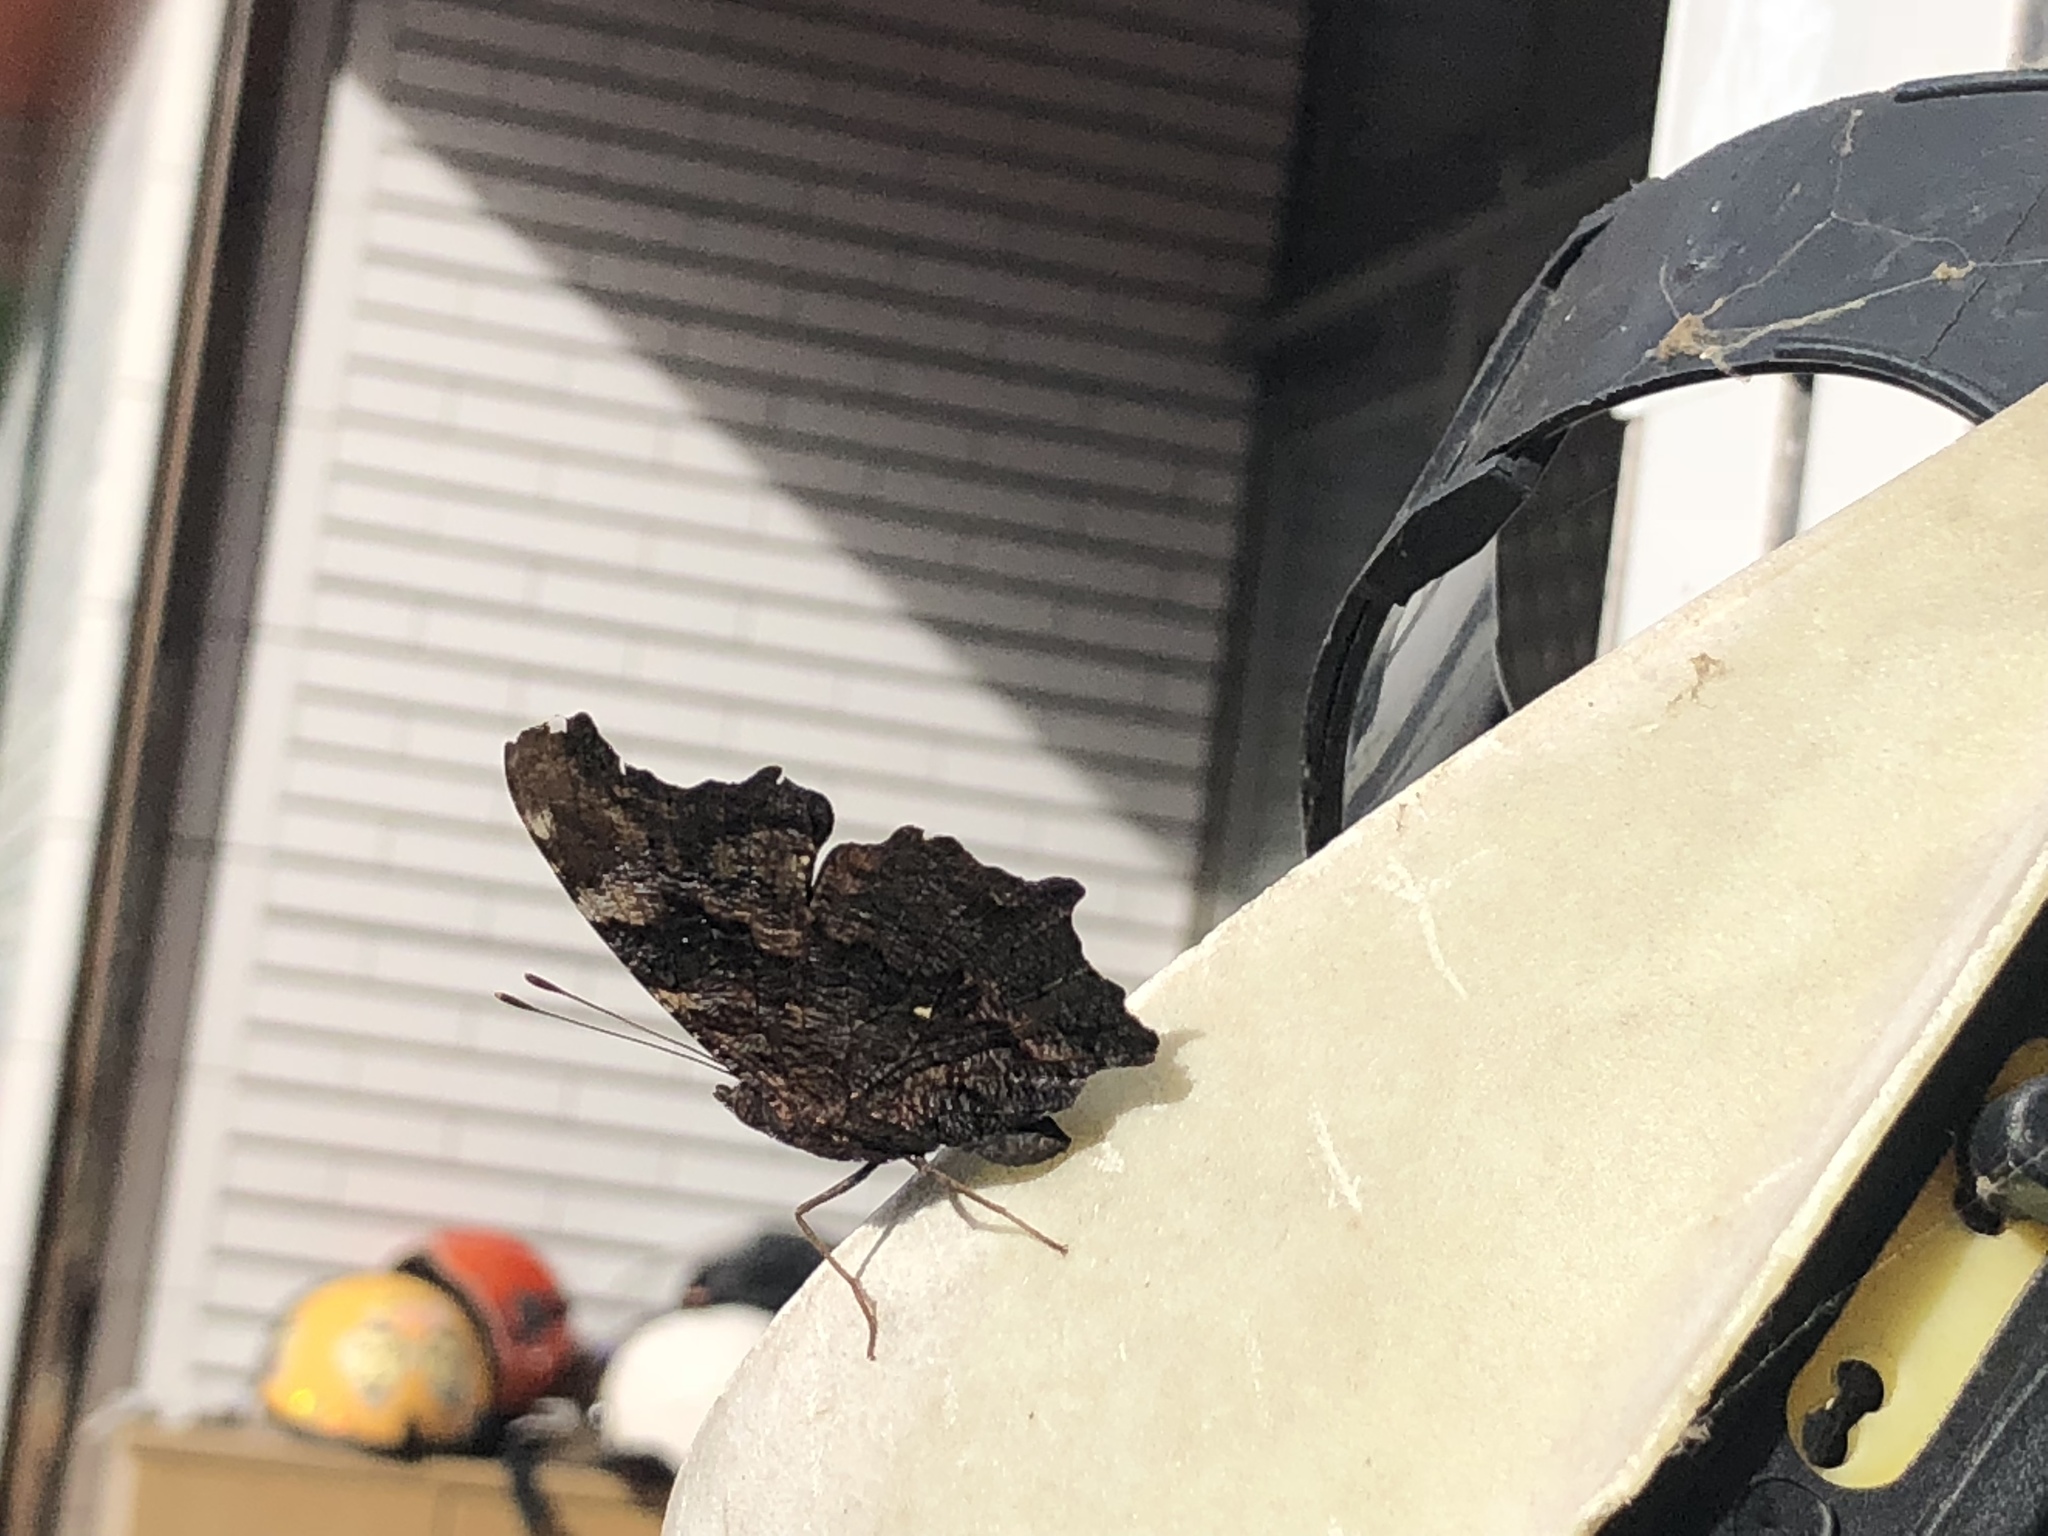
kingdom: Animalia
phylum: Arthropoda
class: Insecta
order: Lepidoptera
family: Nymphalidae
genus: Vanessa
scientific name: Vanessa Kaniska canace
